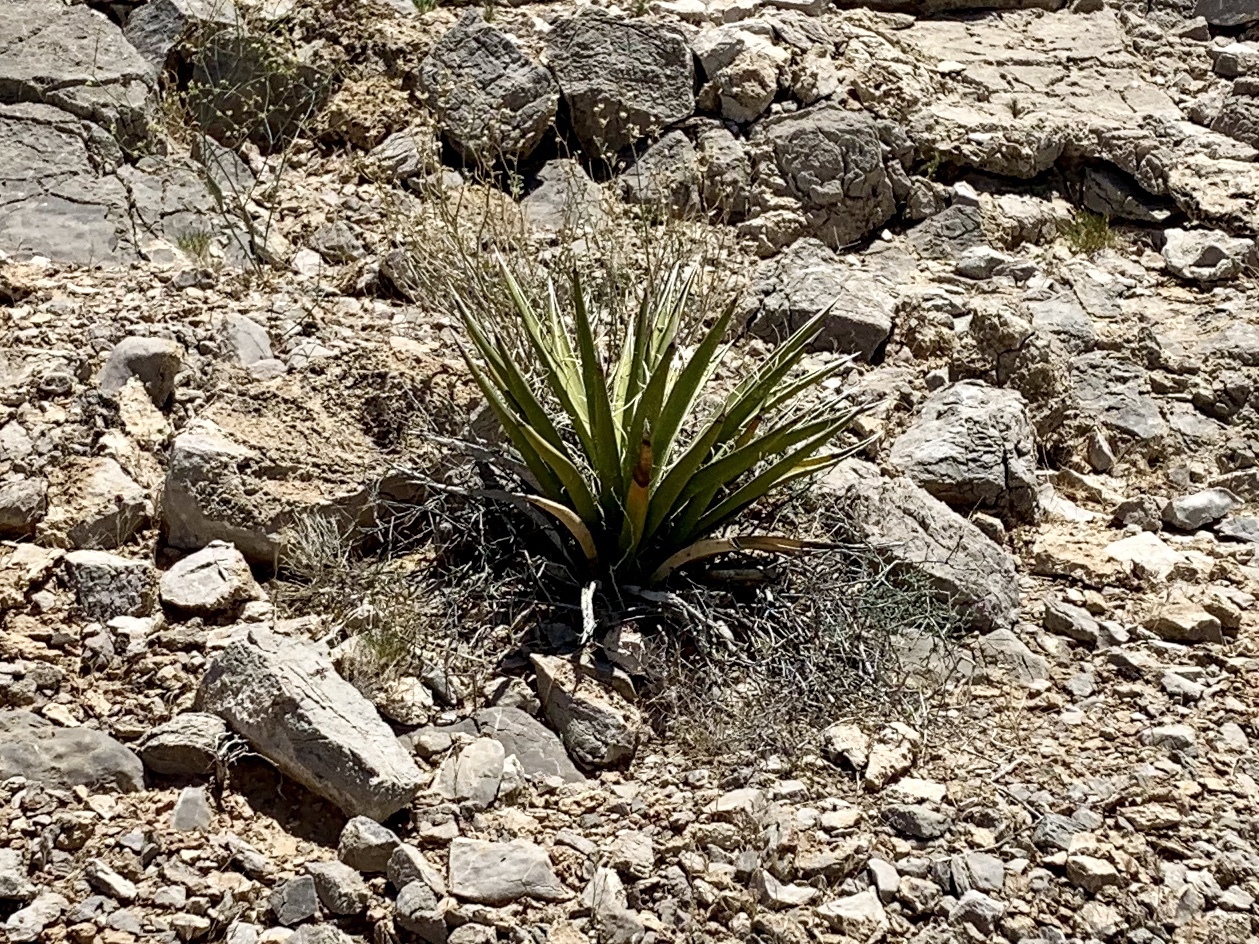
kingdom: Plantae
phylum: Tracheophyta
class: Liliopsida
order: Asparagales
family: Asparagaceae
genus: Yucca
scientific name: Yucca baccata
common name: Banana yucca
